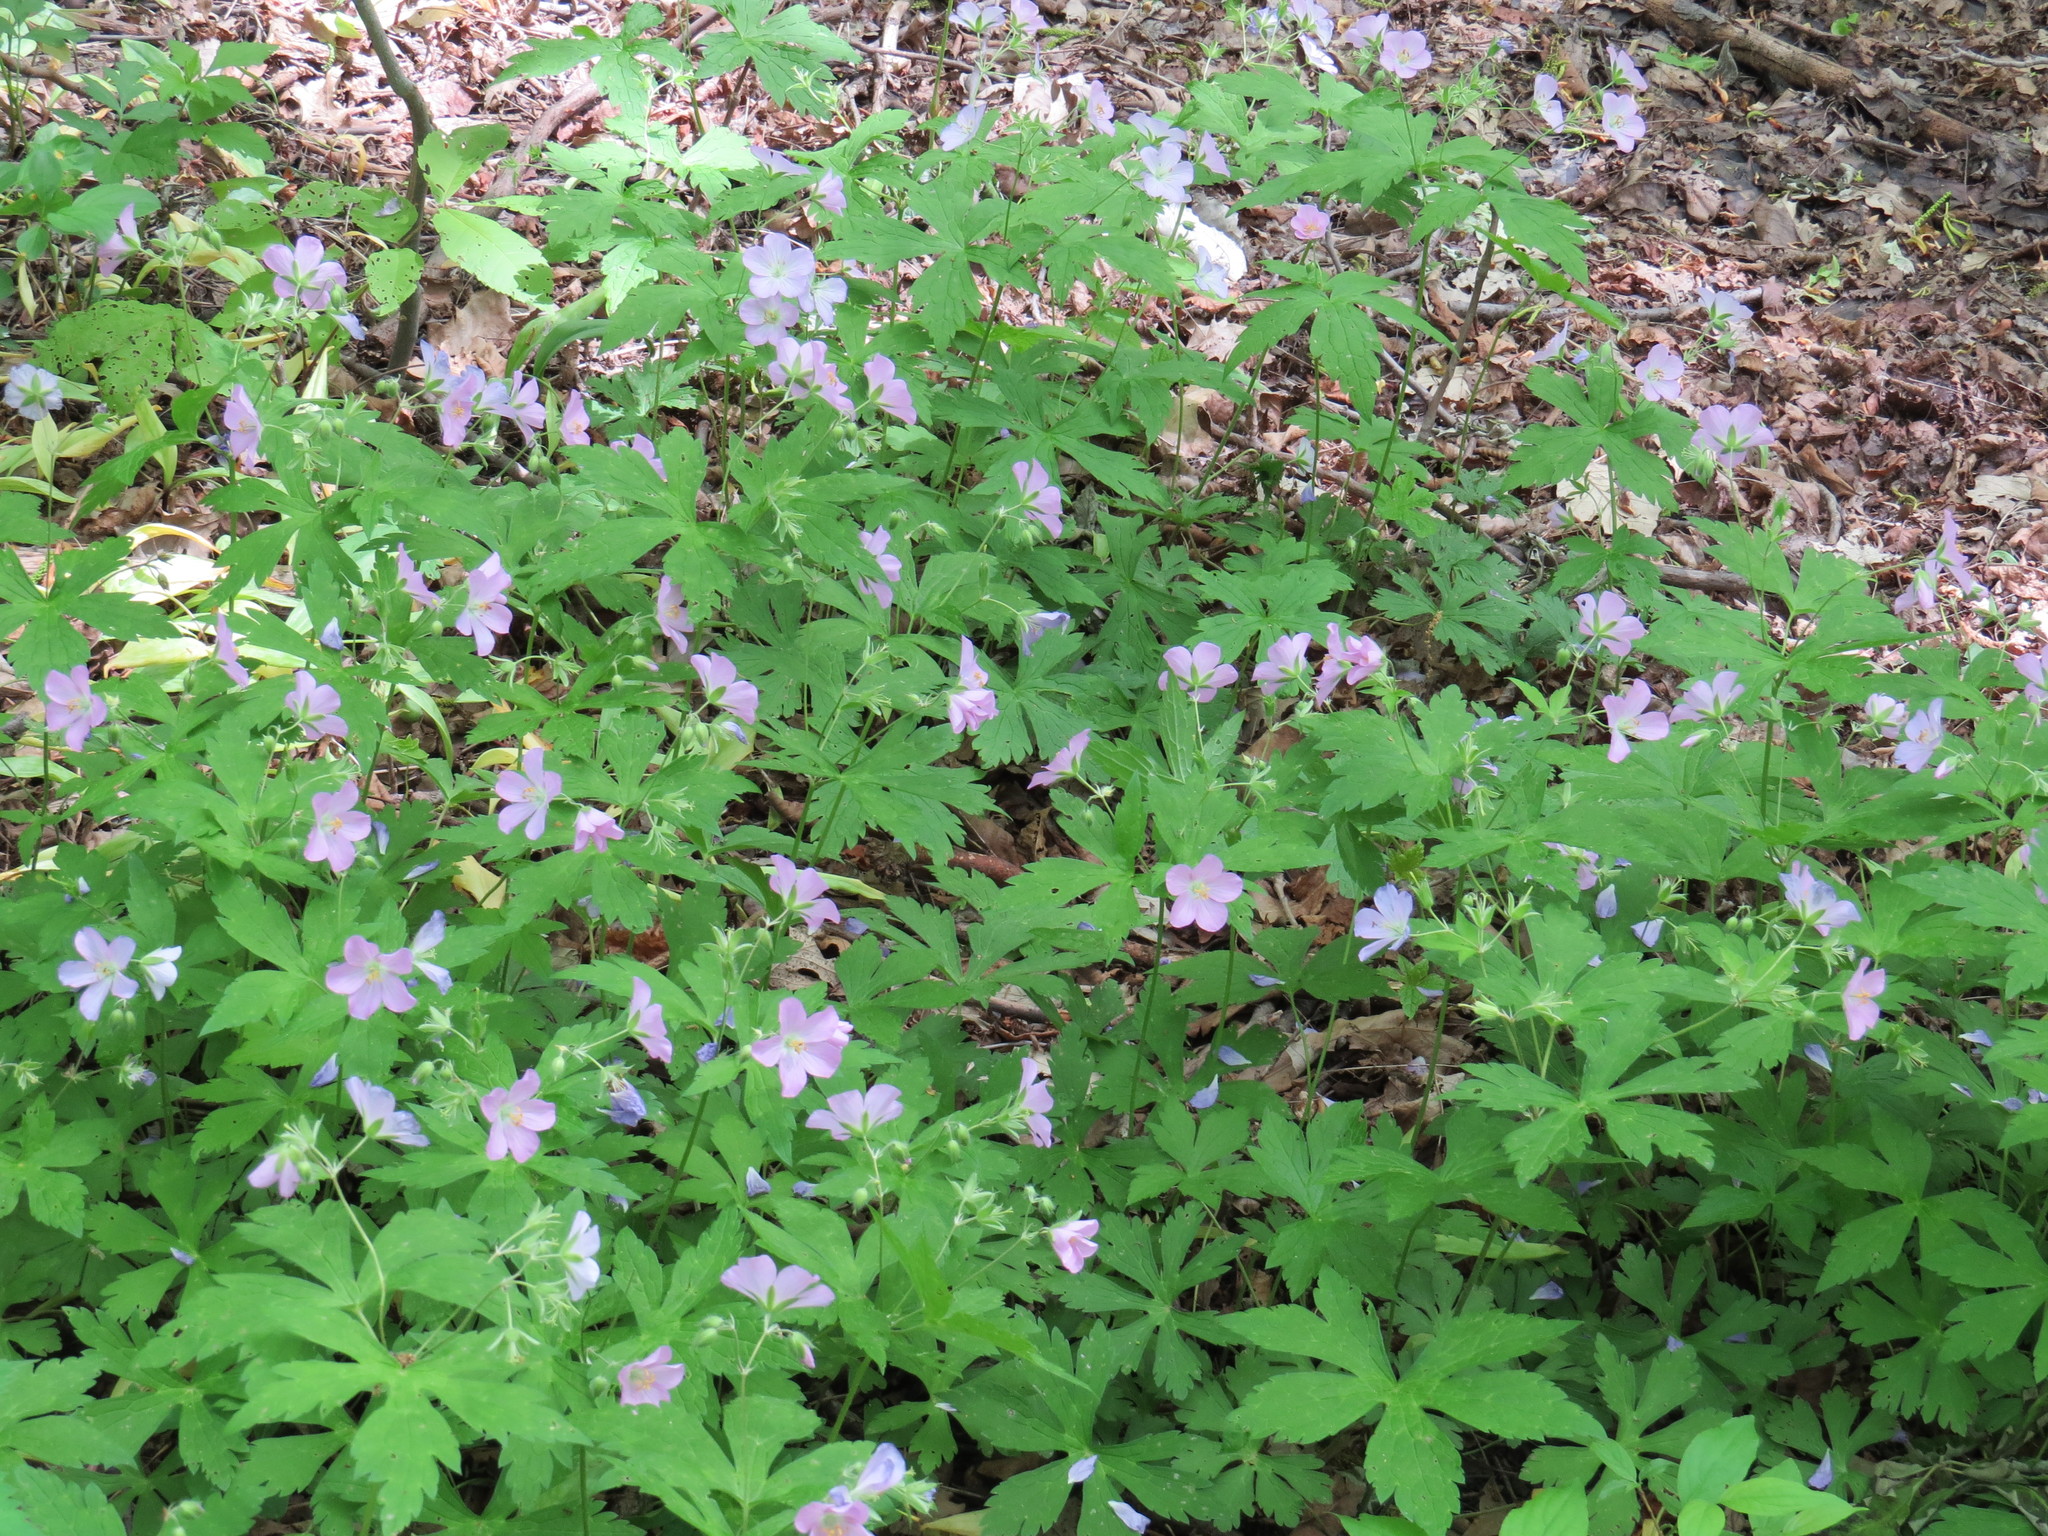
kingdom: Plantae
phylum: Tracheophyta
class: Magnoliopsida
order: Geraniales
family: Geraniaceae
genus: Geranium
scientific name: Geranium maculatum
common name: Spotted geranium
